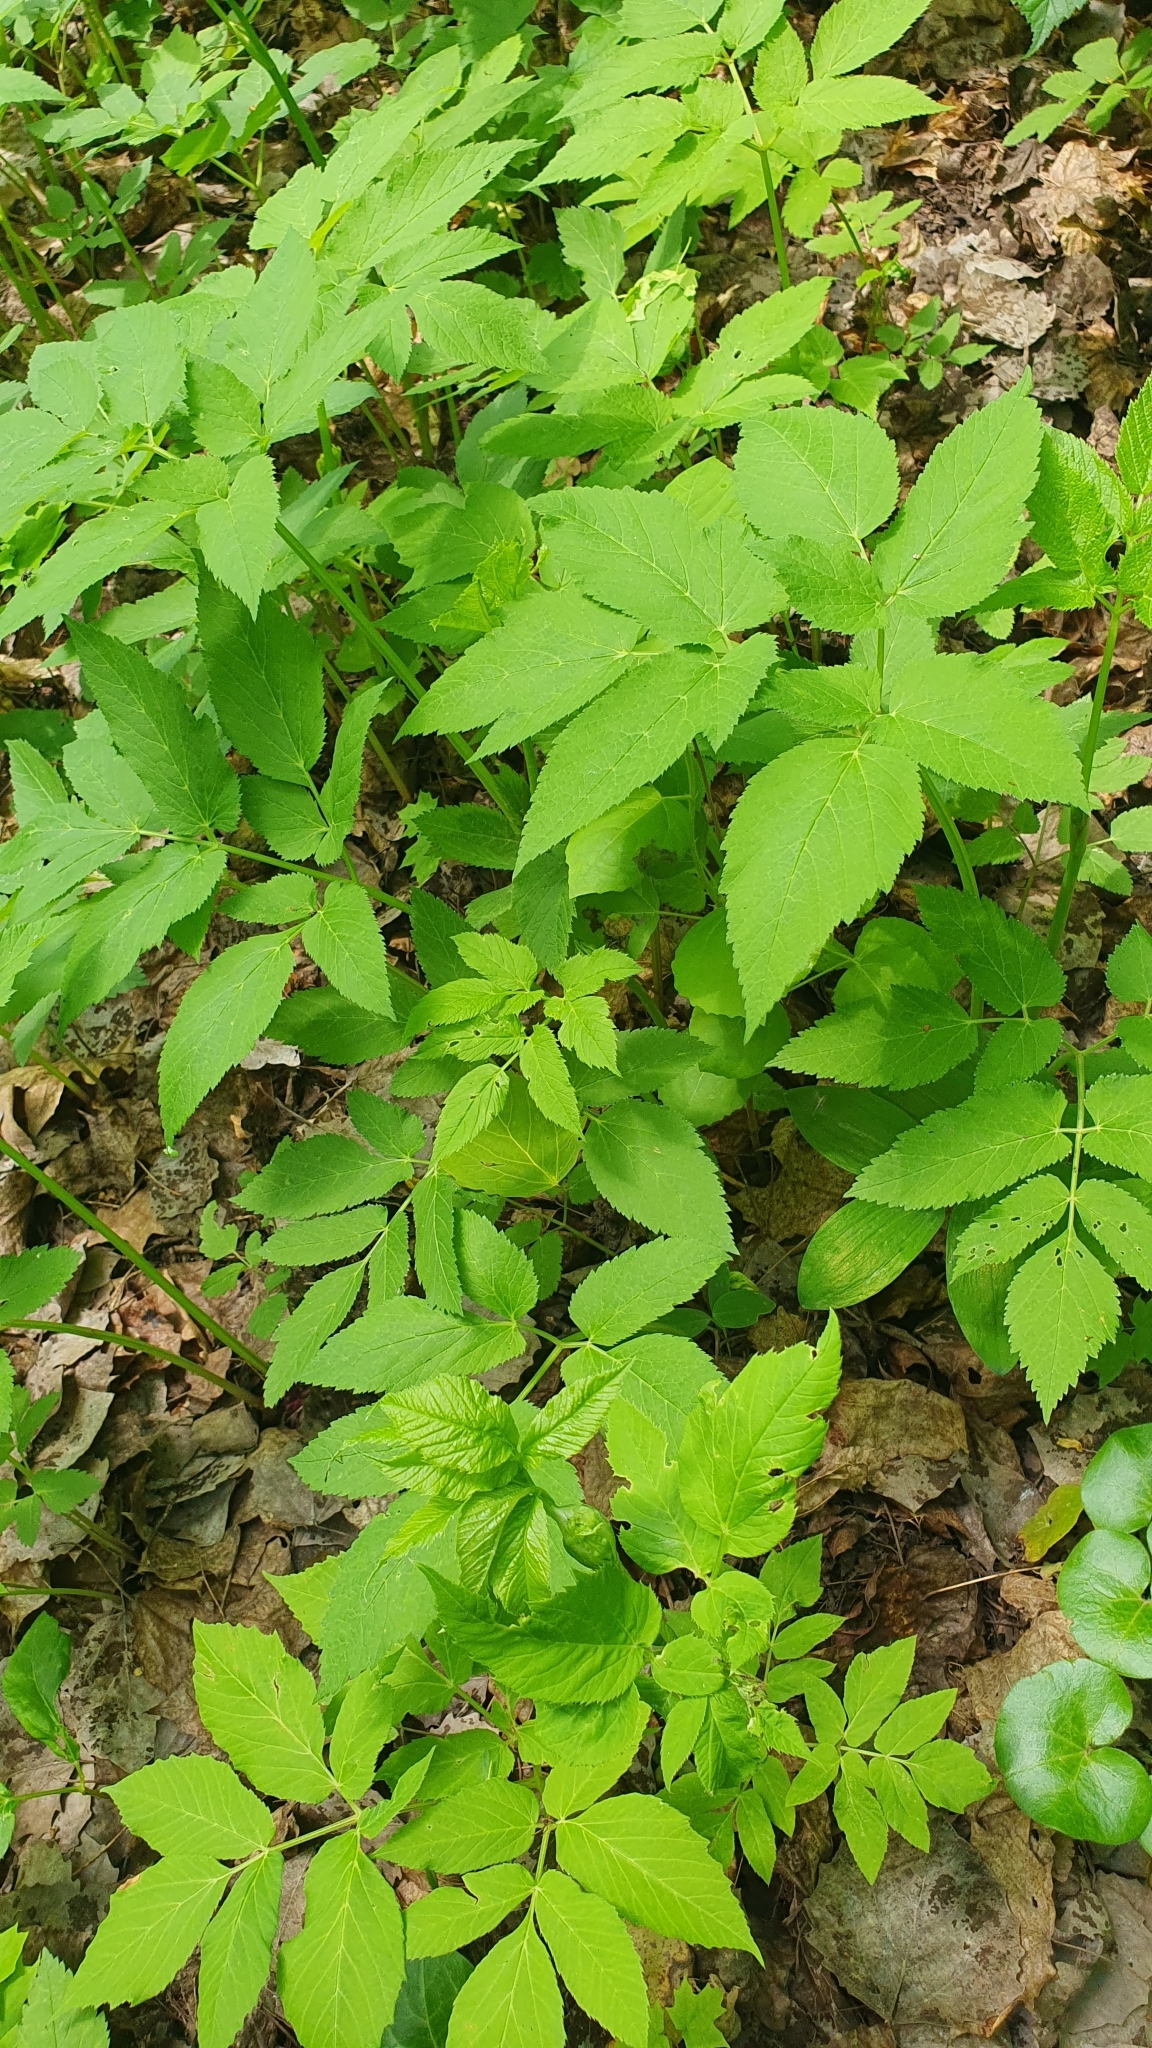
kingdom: Plantae
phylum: Tracheophyta
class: Magnoliopsida
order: Apiales
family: Apiaceae
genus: Aegopodium
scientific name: Aegopodium podagraria
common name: Ground-elder
